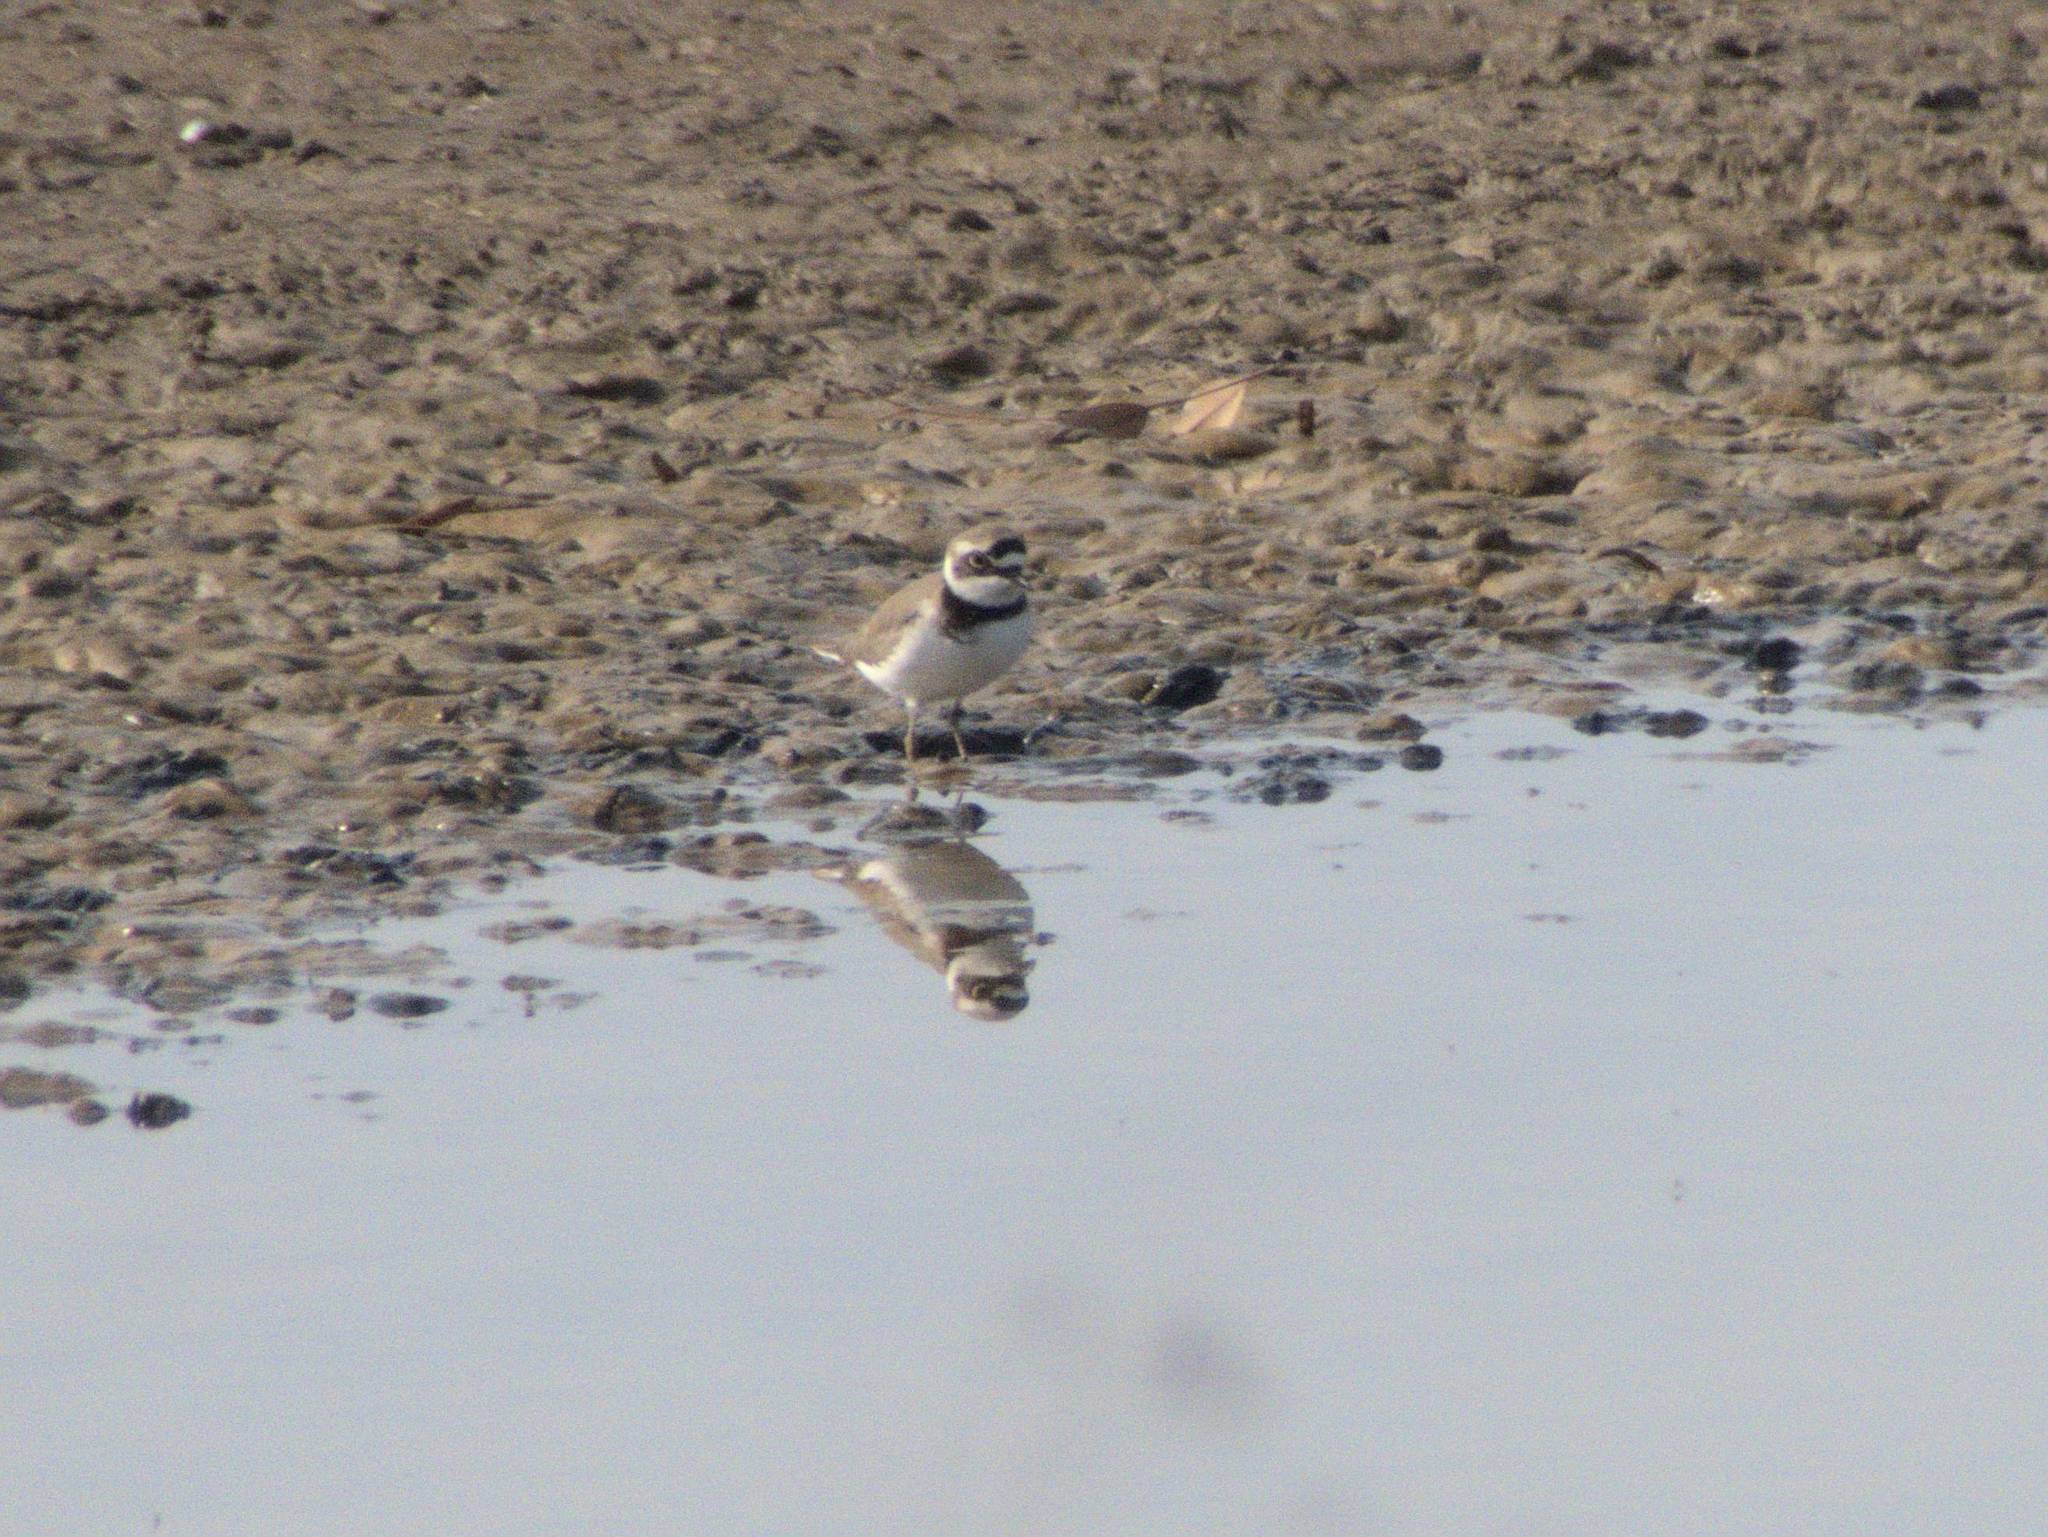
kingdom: Animalia
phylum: Chordata
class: Aves
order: Charadriiformes
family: Charadriidae
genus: Charadrius
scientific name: Charadrius dubius
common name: Little ringed plover
